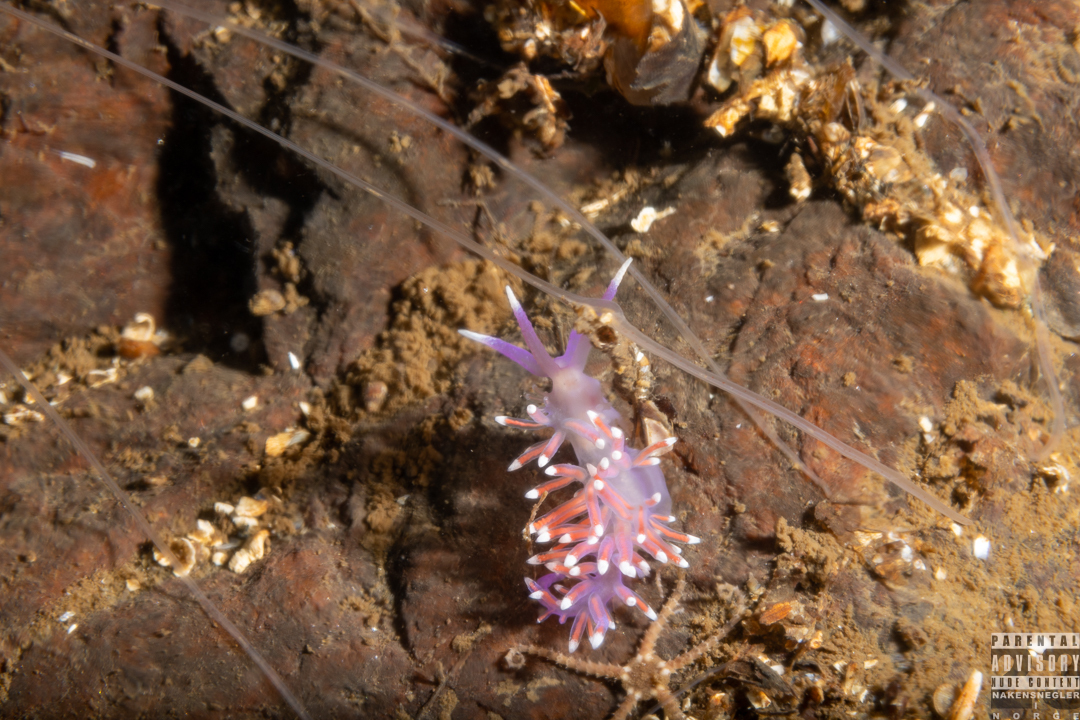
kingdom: Animalia
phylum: Mollusca
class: Gastropoda
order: Nudibranchia
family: Flabellinidae
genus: Edmundsella
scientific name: Edmundsella pedata
